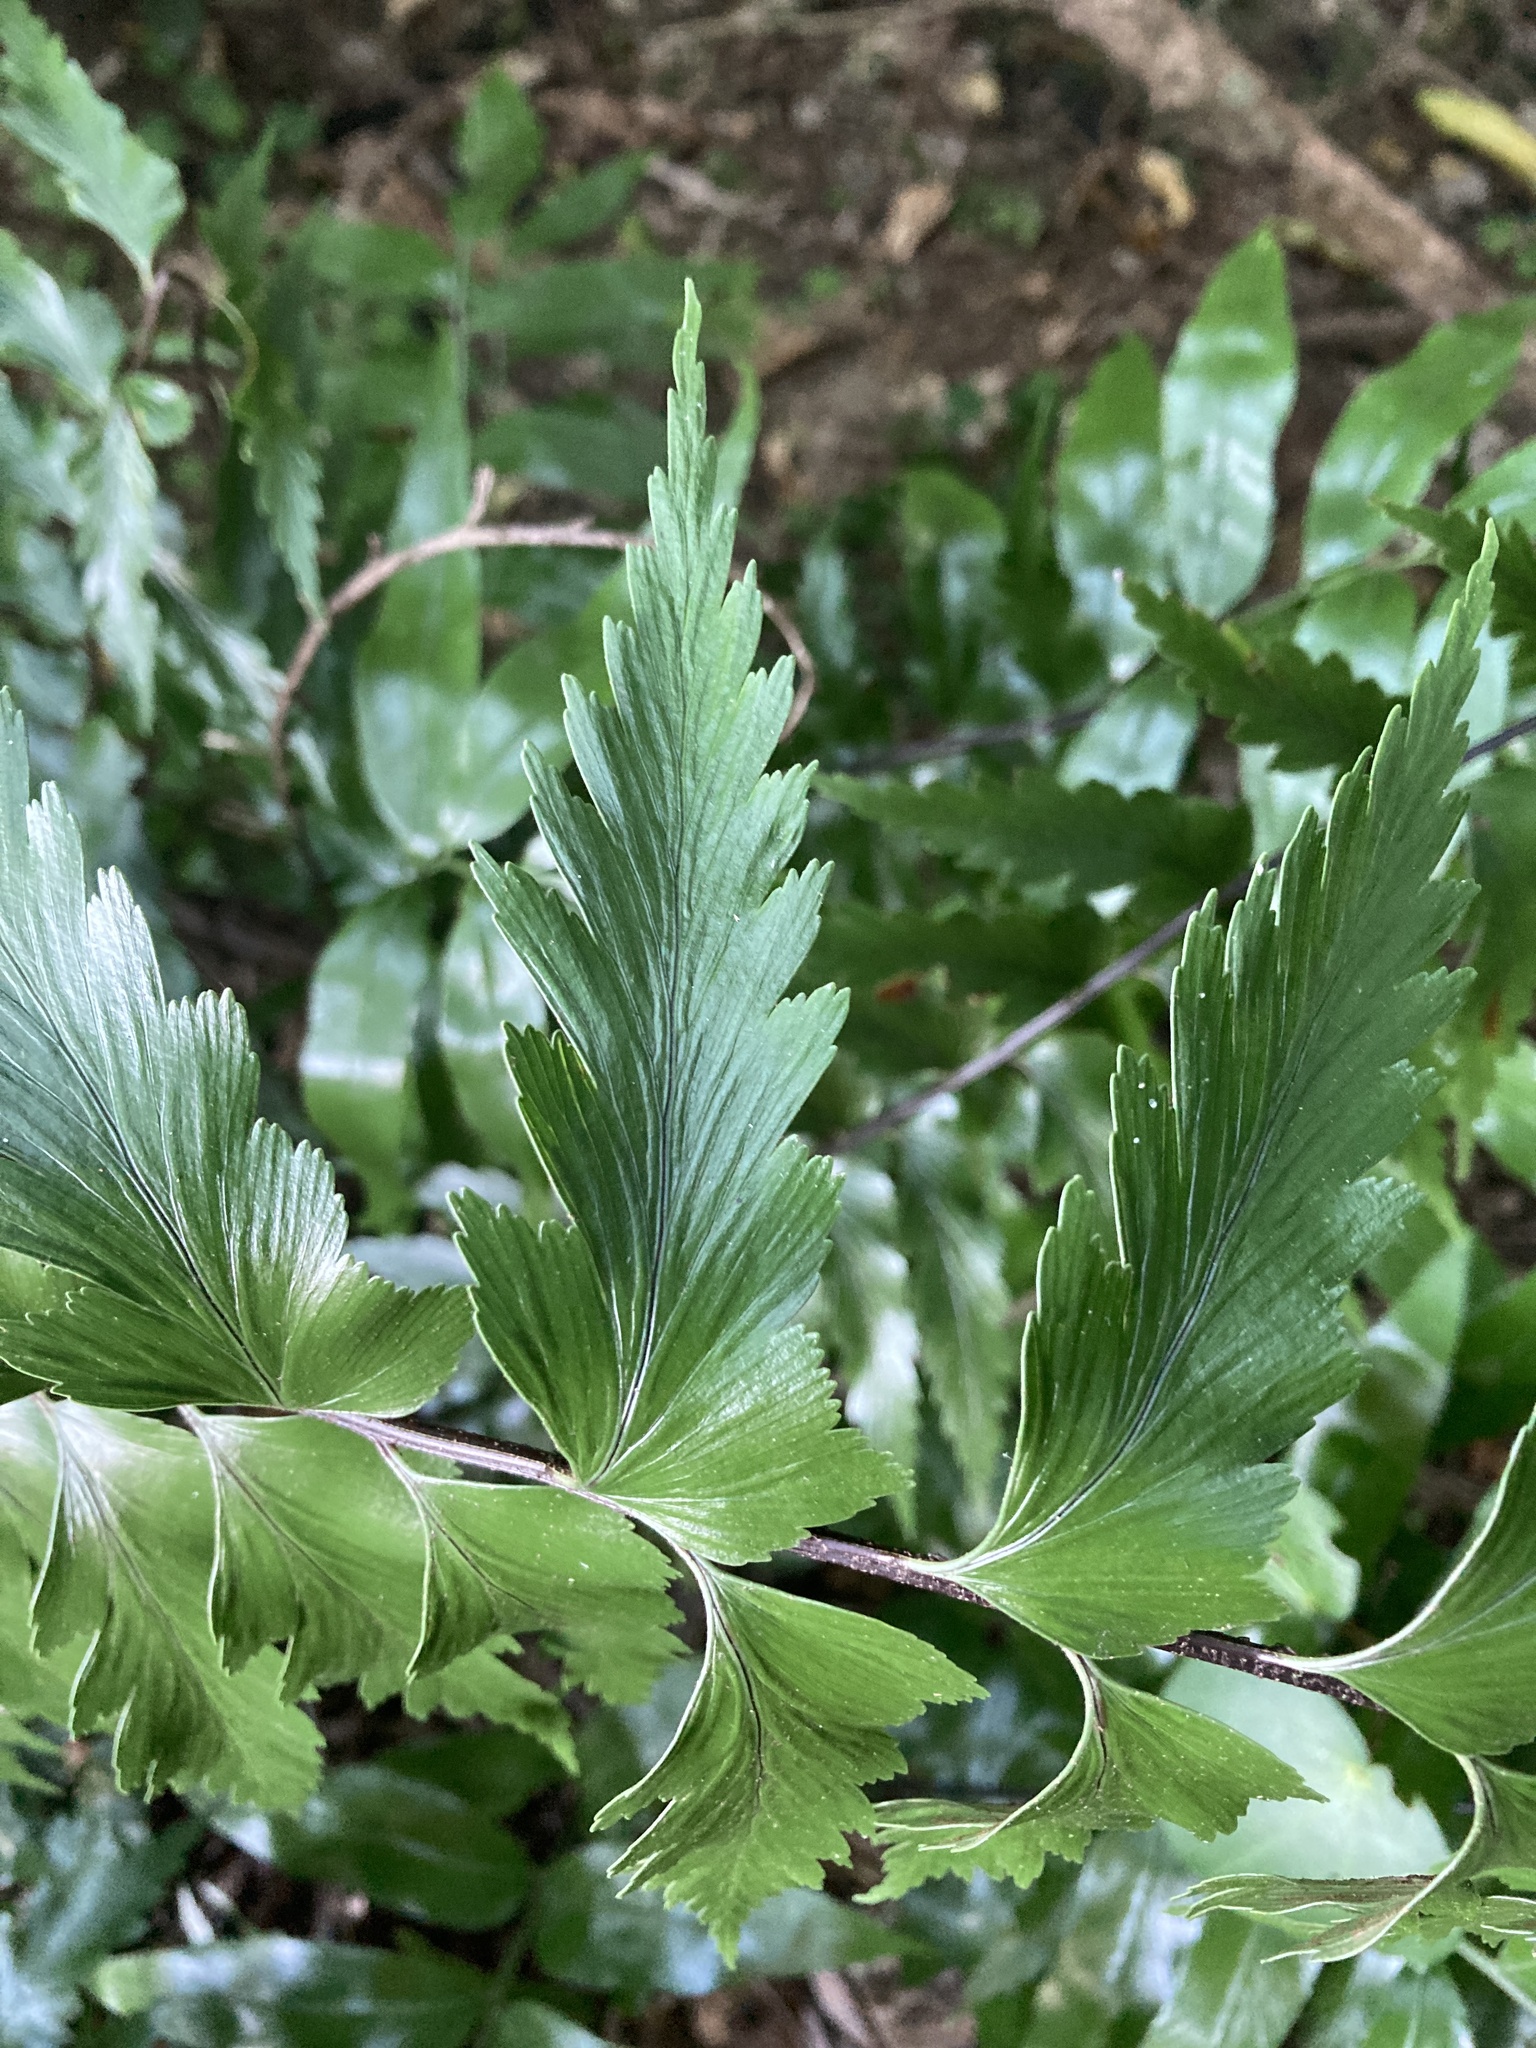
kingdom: Plantae
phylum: Tracheophyta
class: Polypodiopsida
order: Polypodiales
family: Aspleniaceae
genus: Asplenium
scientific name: Asplenium polyodon
